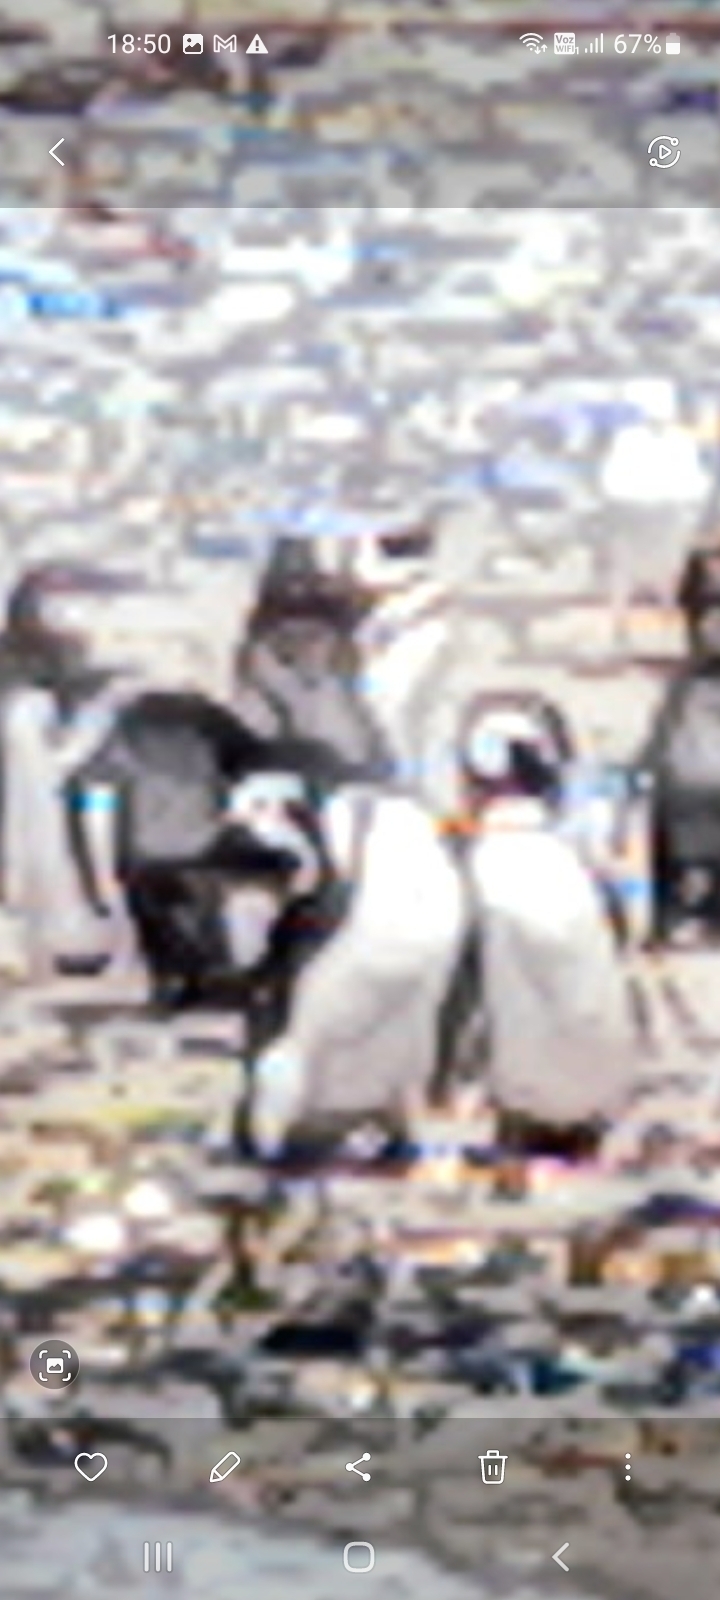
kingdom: Animalia
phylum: Chordata
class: Aves
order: Sphenisciformes
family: Spheniscidae
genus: Spheniscus
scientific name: Spheniscus magellanicus
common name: Magellanic penguin
